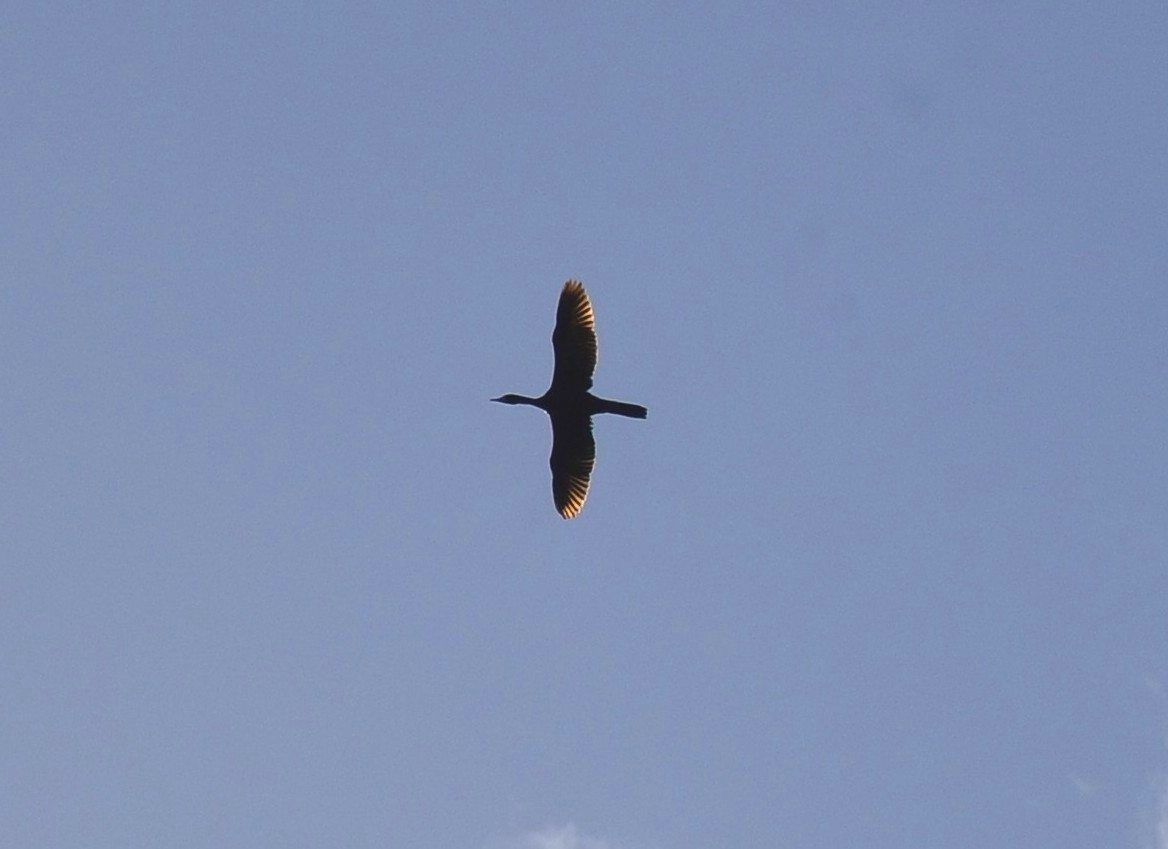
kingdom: Animalia
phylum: Chordata
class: Aves
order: Suliformes
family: Phalacrocoracidae
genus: Microcarbo
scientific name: Microcarbo niger
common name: Little cormorant
